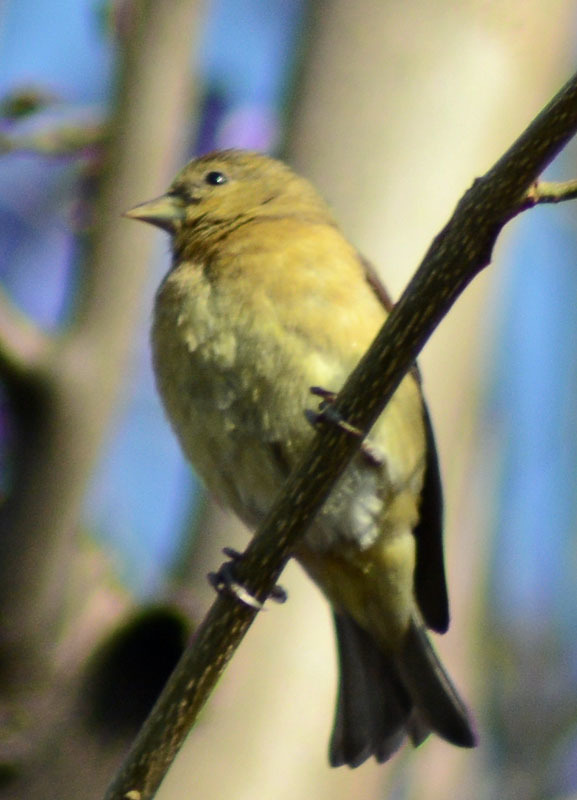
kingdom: Animalia
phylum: Chordata
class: Aves
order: Passeriformes
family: Fringillidae
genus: Spinus
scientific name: Spinus psaltria
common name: Lesser goldfinch
